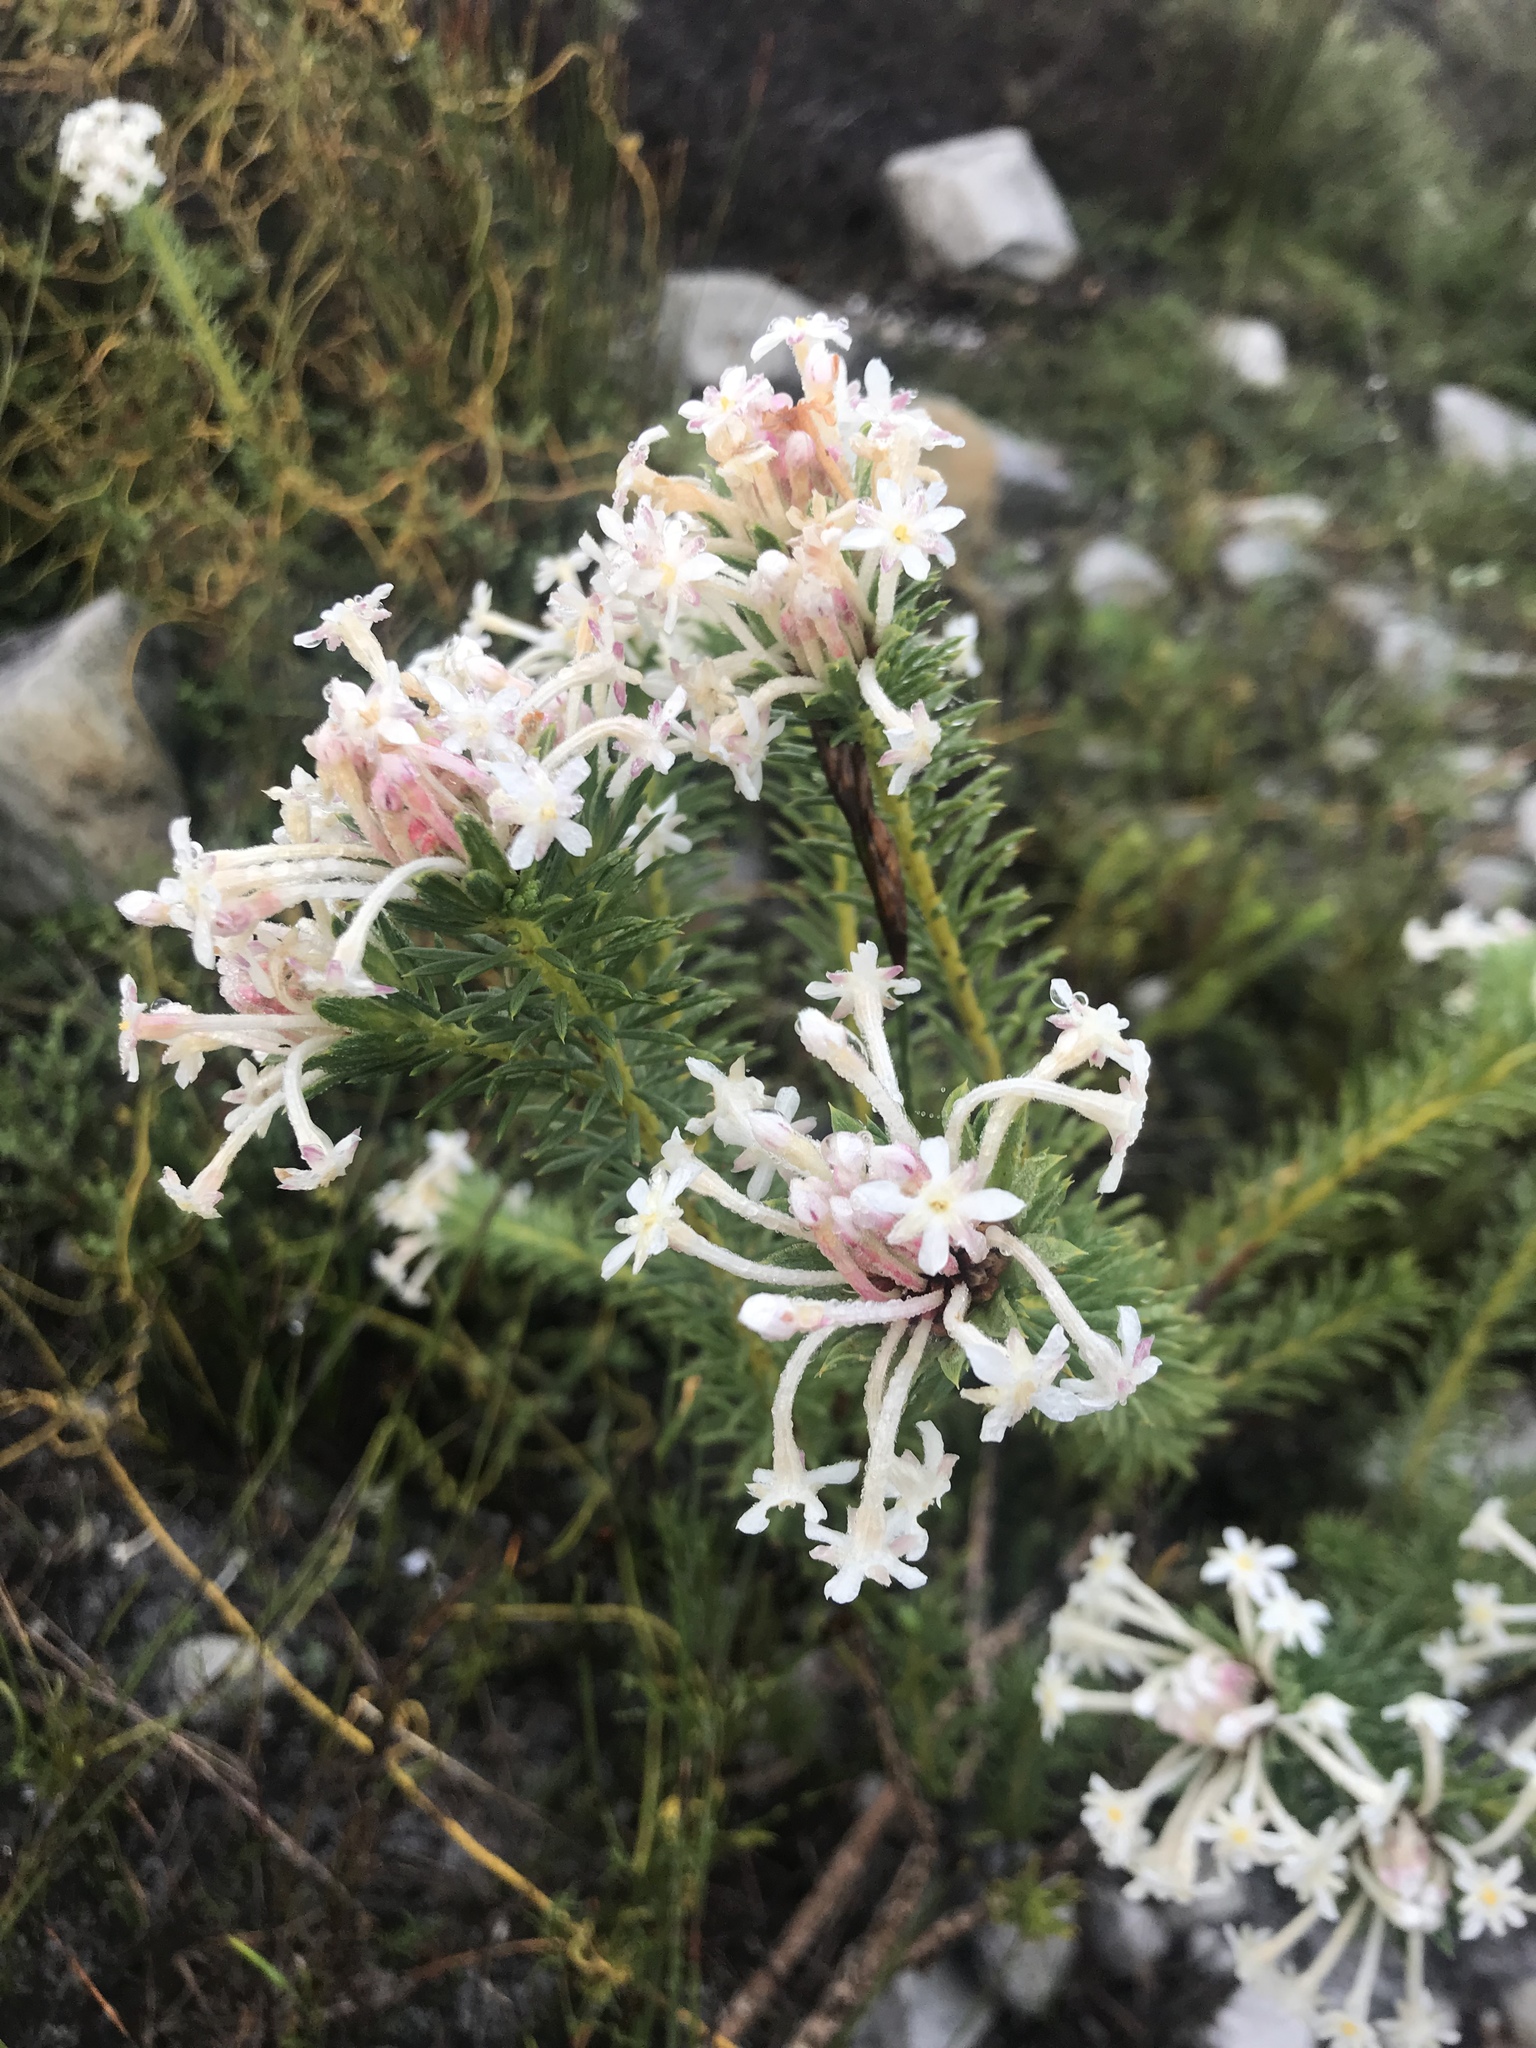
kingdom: Plantae
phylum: Tracheophyta
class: Magnoliopsida
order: Malvales
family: Thymelaeaceae
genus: Gnidia
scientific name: Gnidia pinifolia
